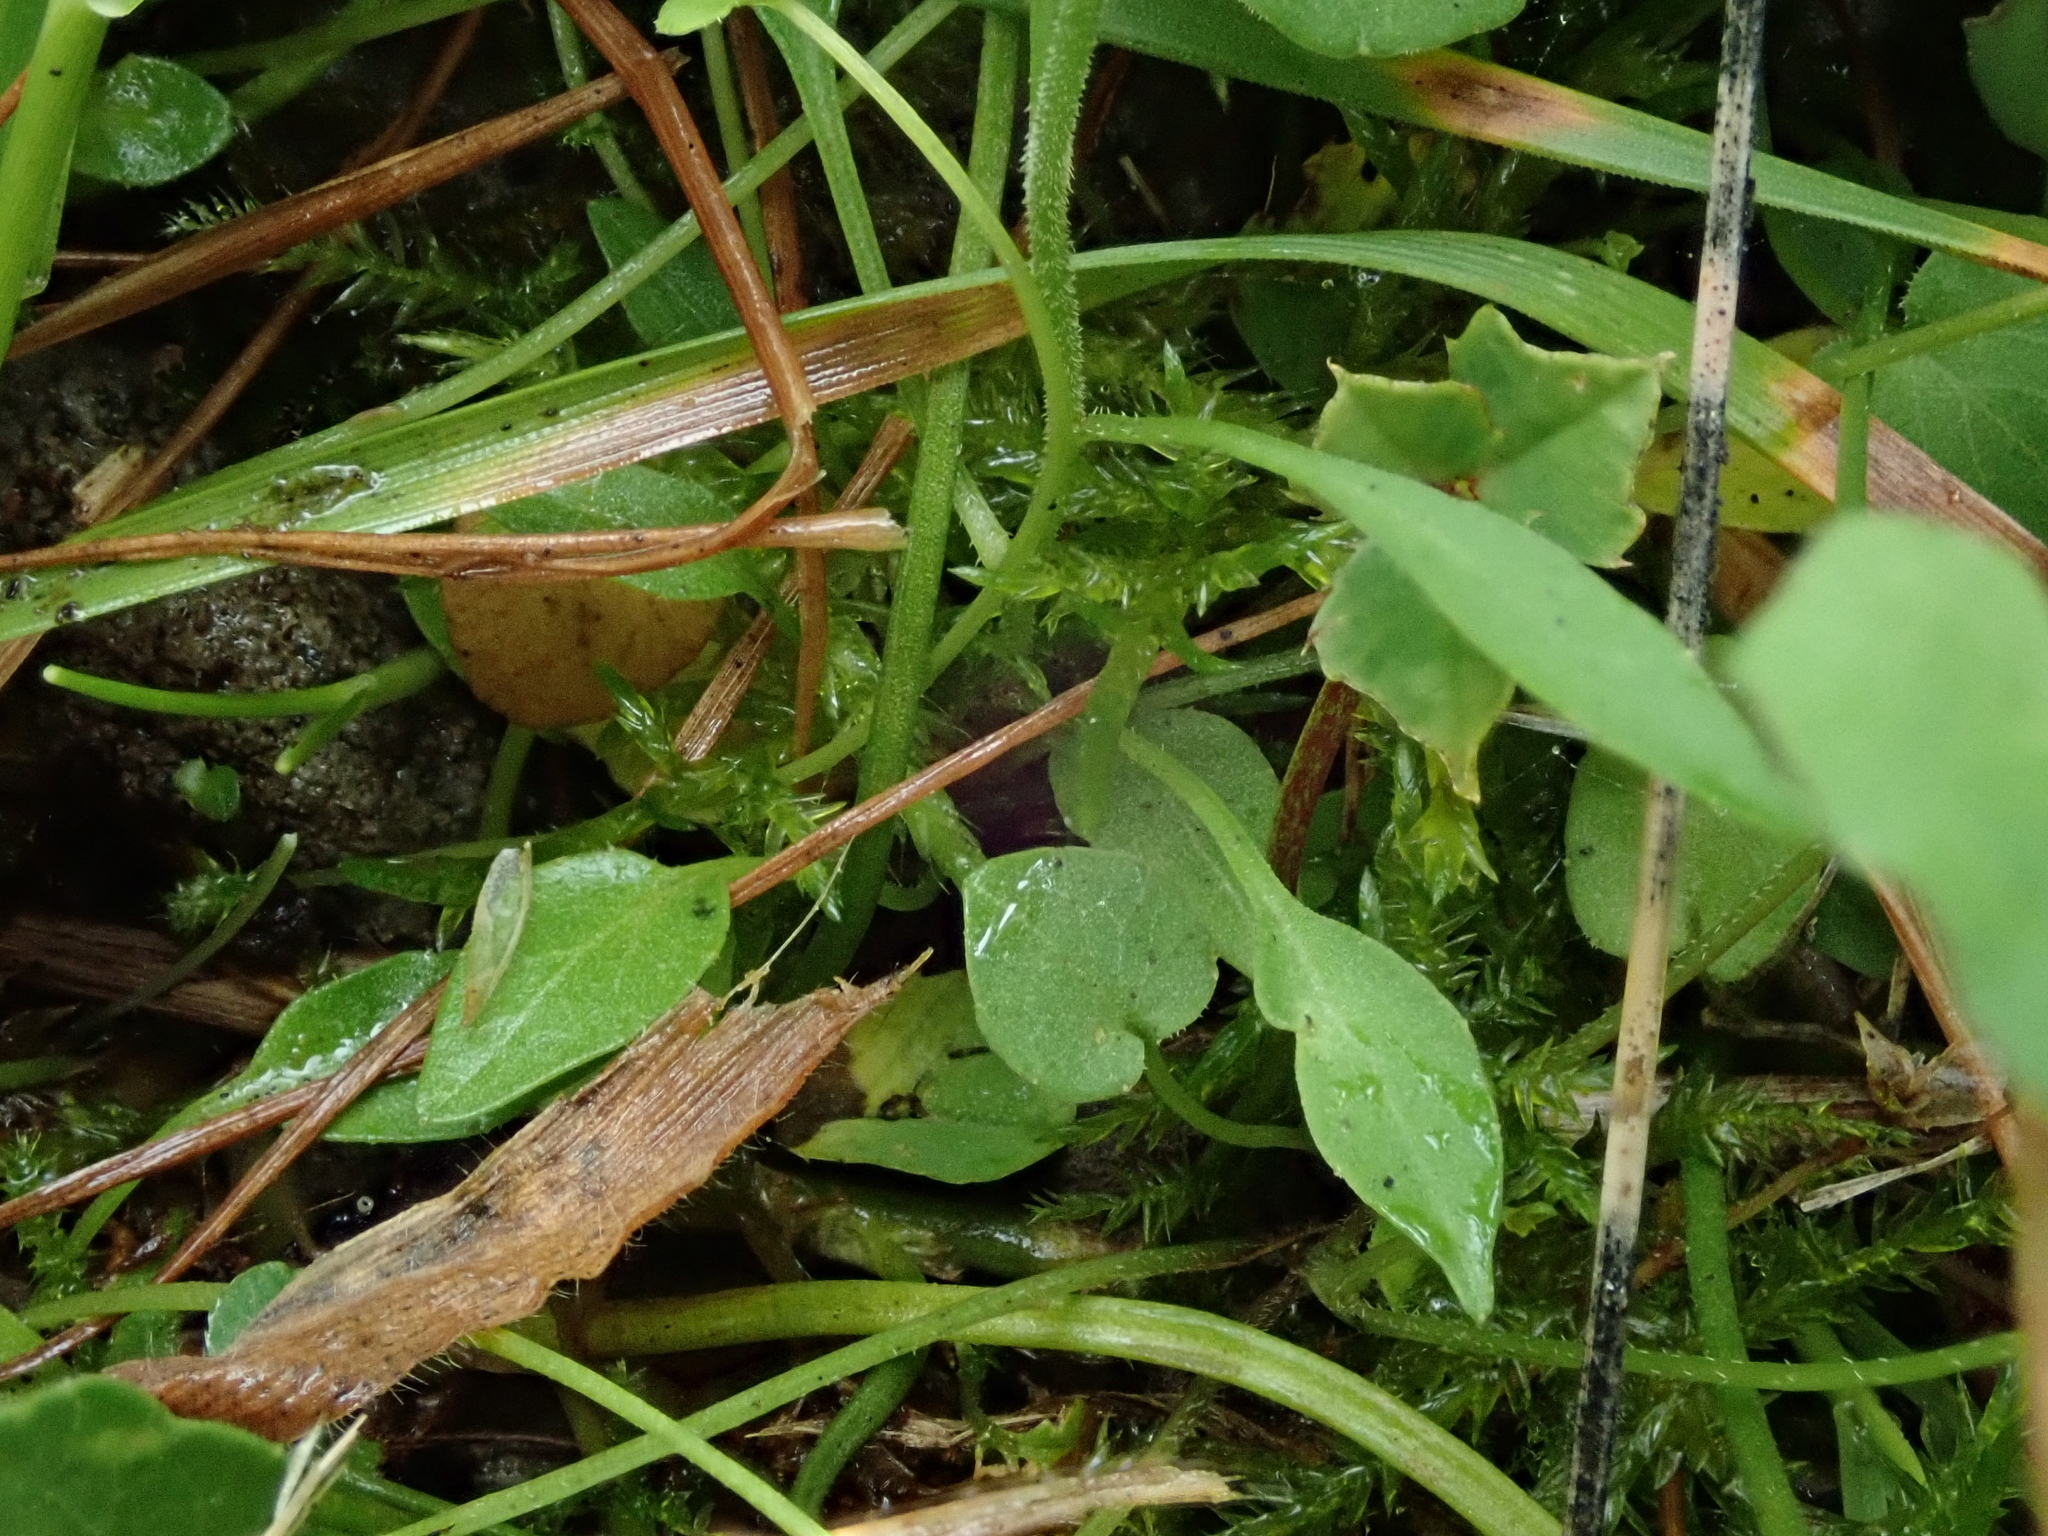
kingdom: Plantae
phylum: Tracheophyta
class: Magnoliopsida
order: Asterales
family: Campanulaceae
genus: Campanula
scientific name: Campanula rotundifolia
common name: Harebell
